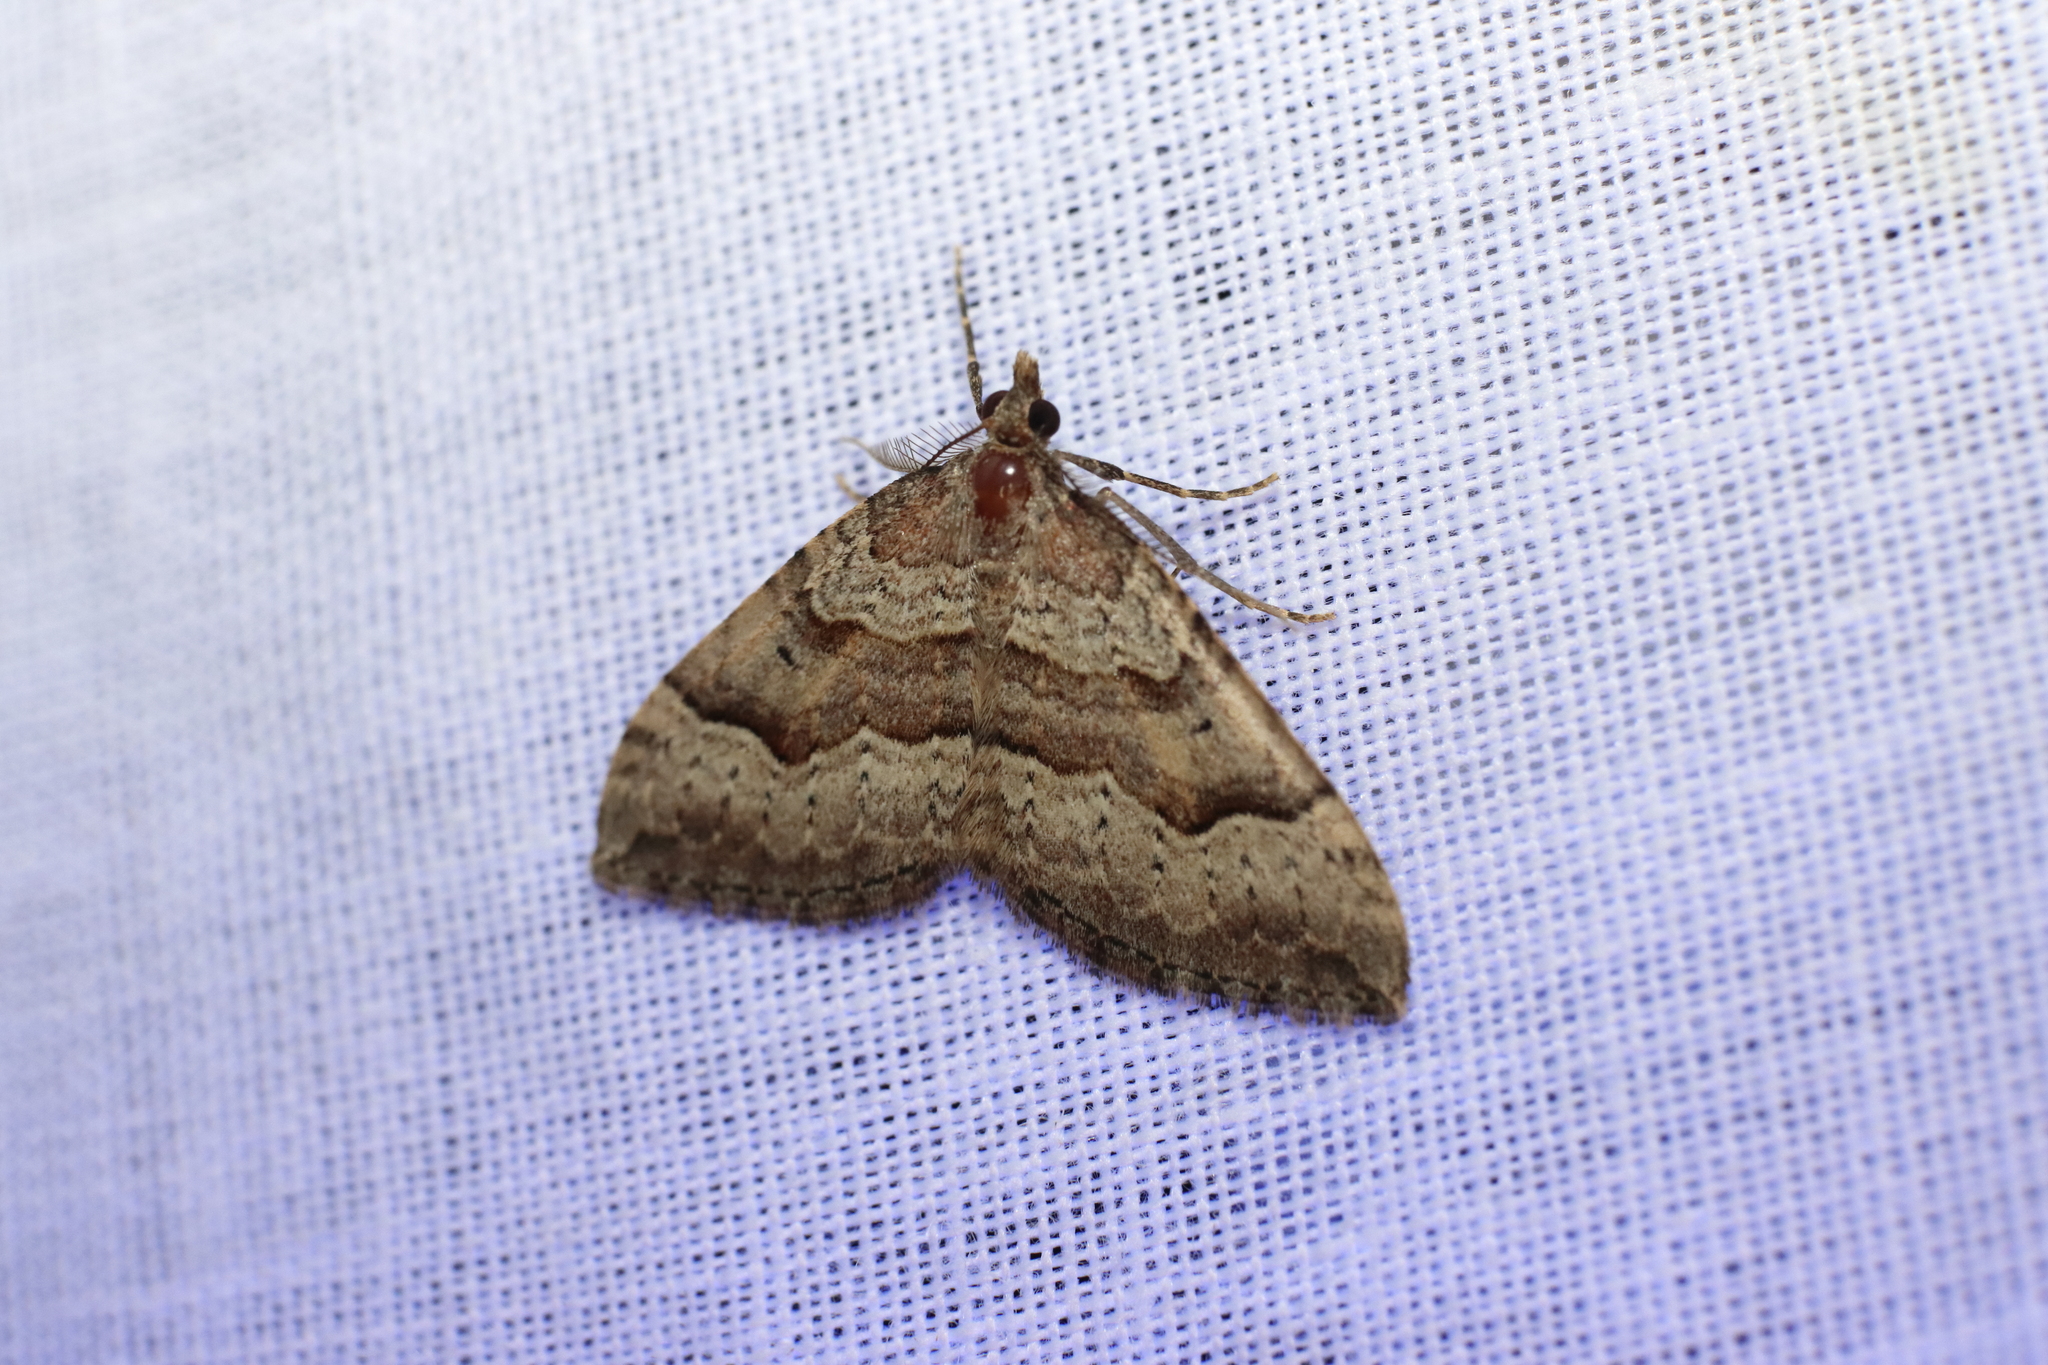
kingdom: Animalia
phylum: Arthropoda
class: Insecta
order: Lepidoptera
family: Geometridae
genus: Epyaxa
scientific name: Epyaxa rosearia
